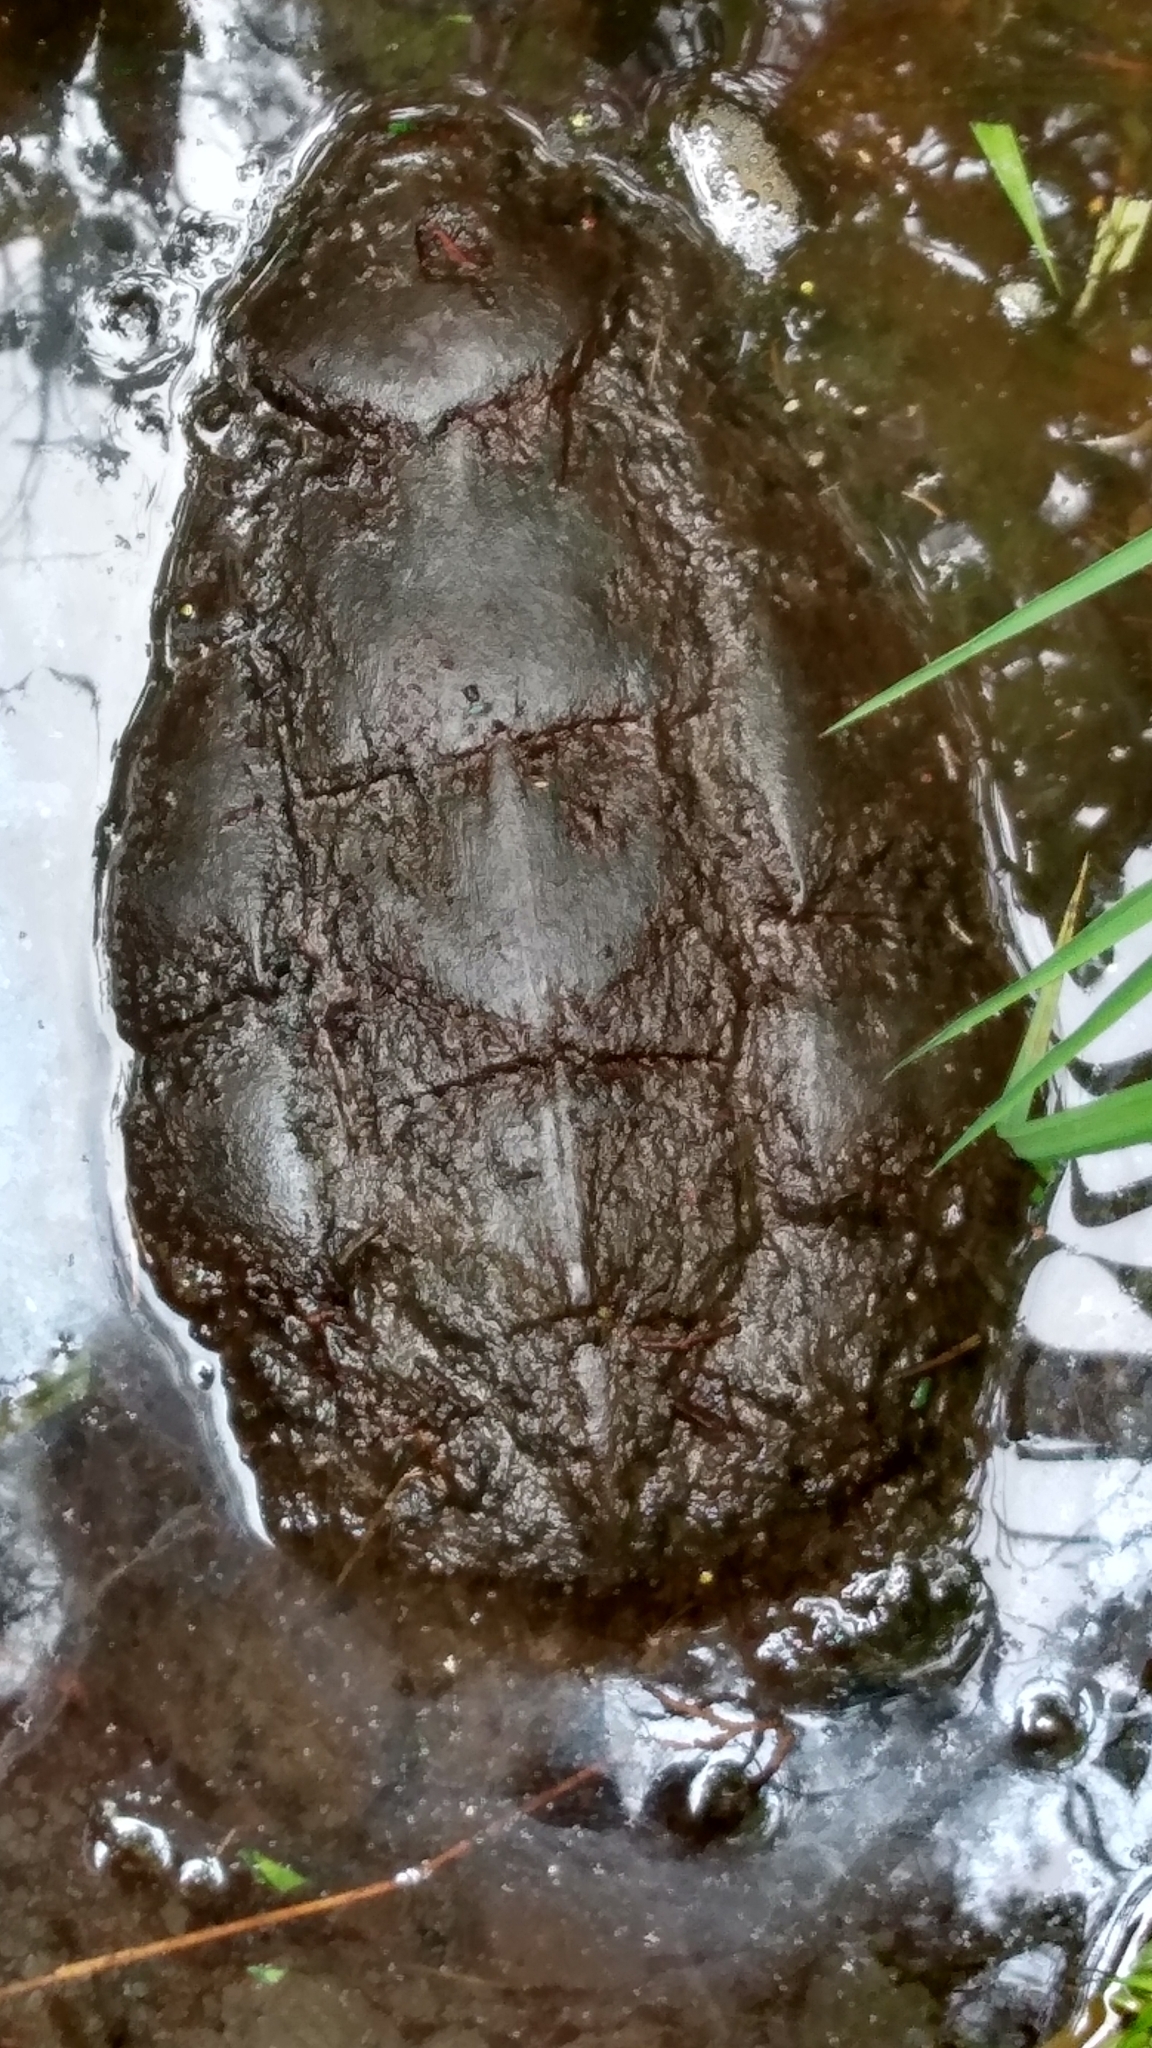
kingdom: Animalia
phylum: Chordata
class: Testudines
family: Chelydridae
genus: Chelydra
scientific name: Chelydra serpentina
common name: Common snapping turtle
